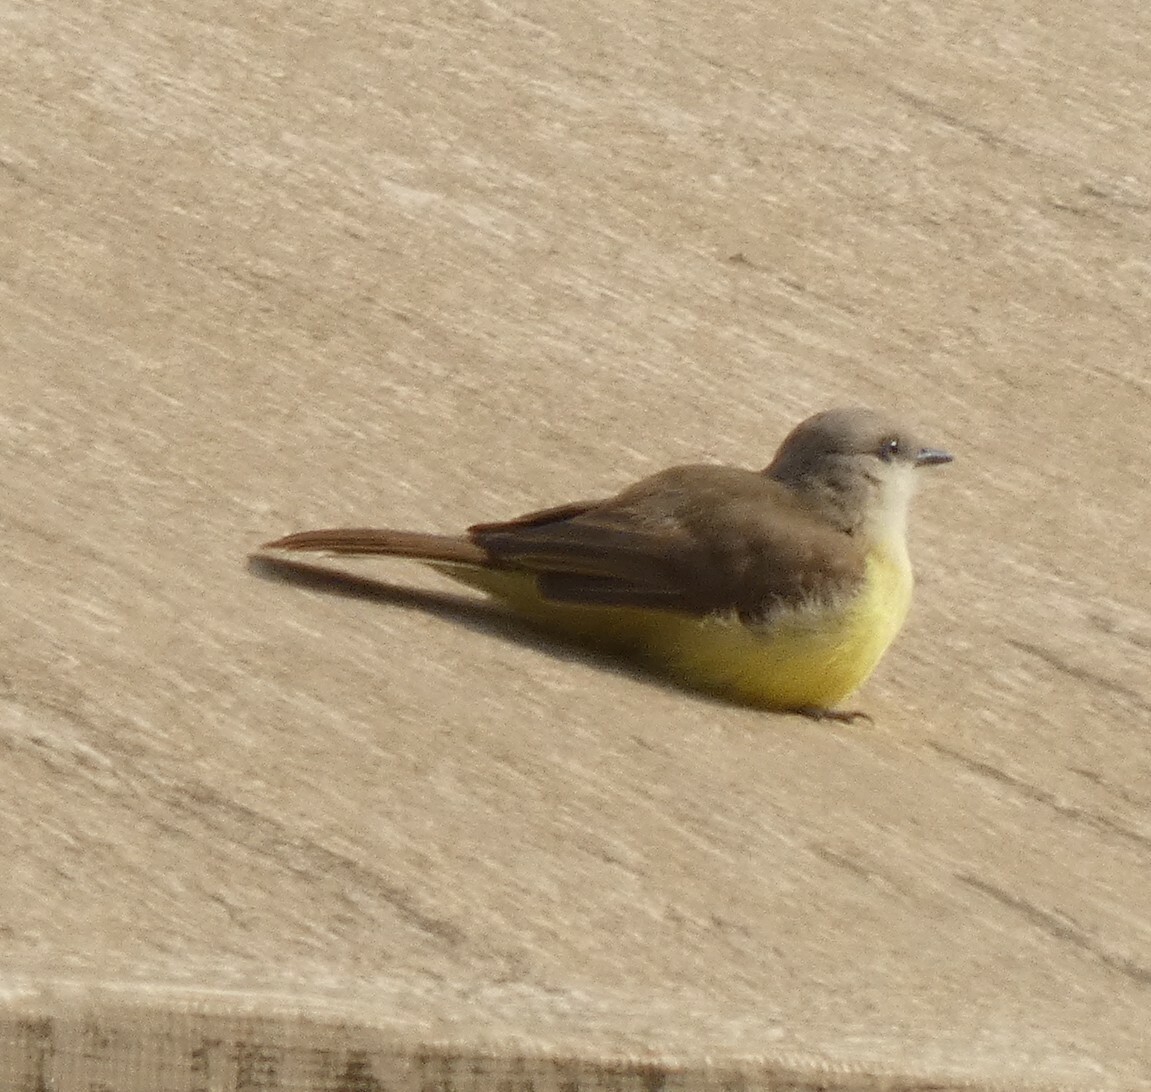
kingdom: Animalia
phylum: Chordata
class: Aves
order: Passeriformes
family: Tyrannidae
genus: Machetornis
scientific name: Machetornis rixosa
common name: Cattle tyrant
